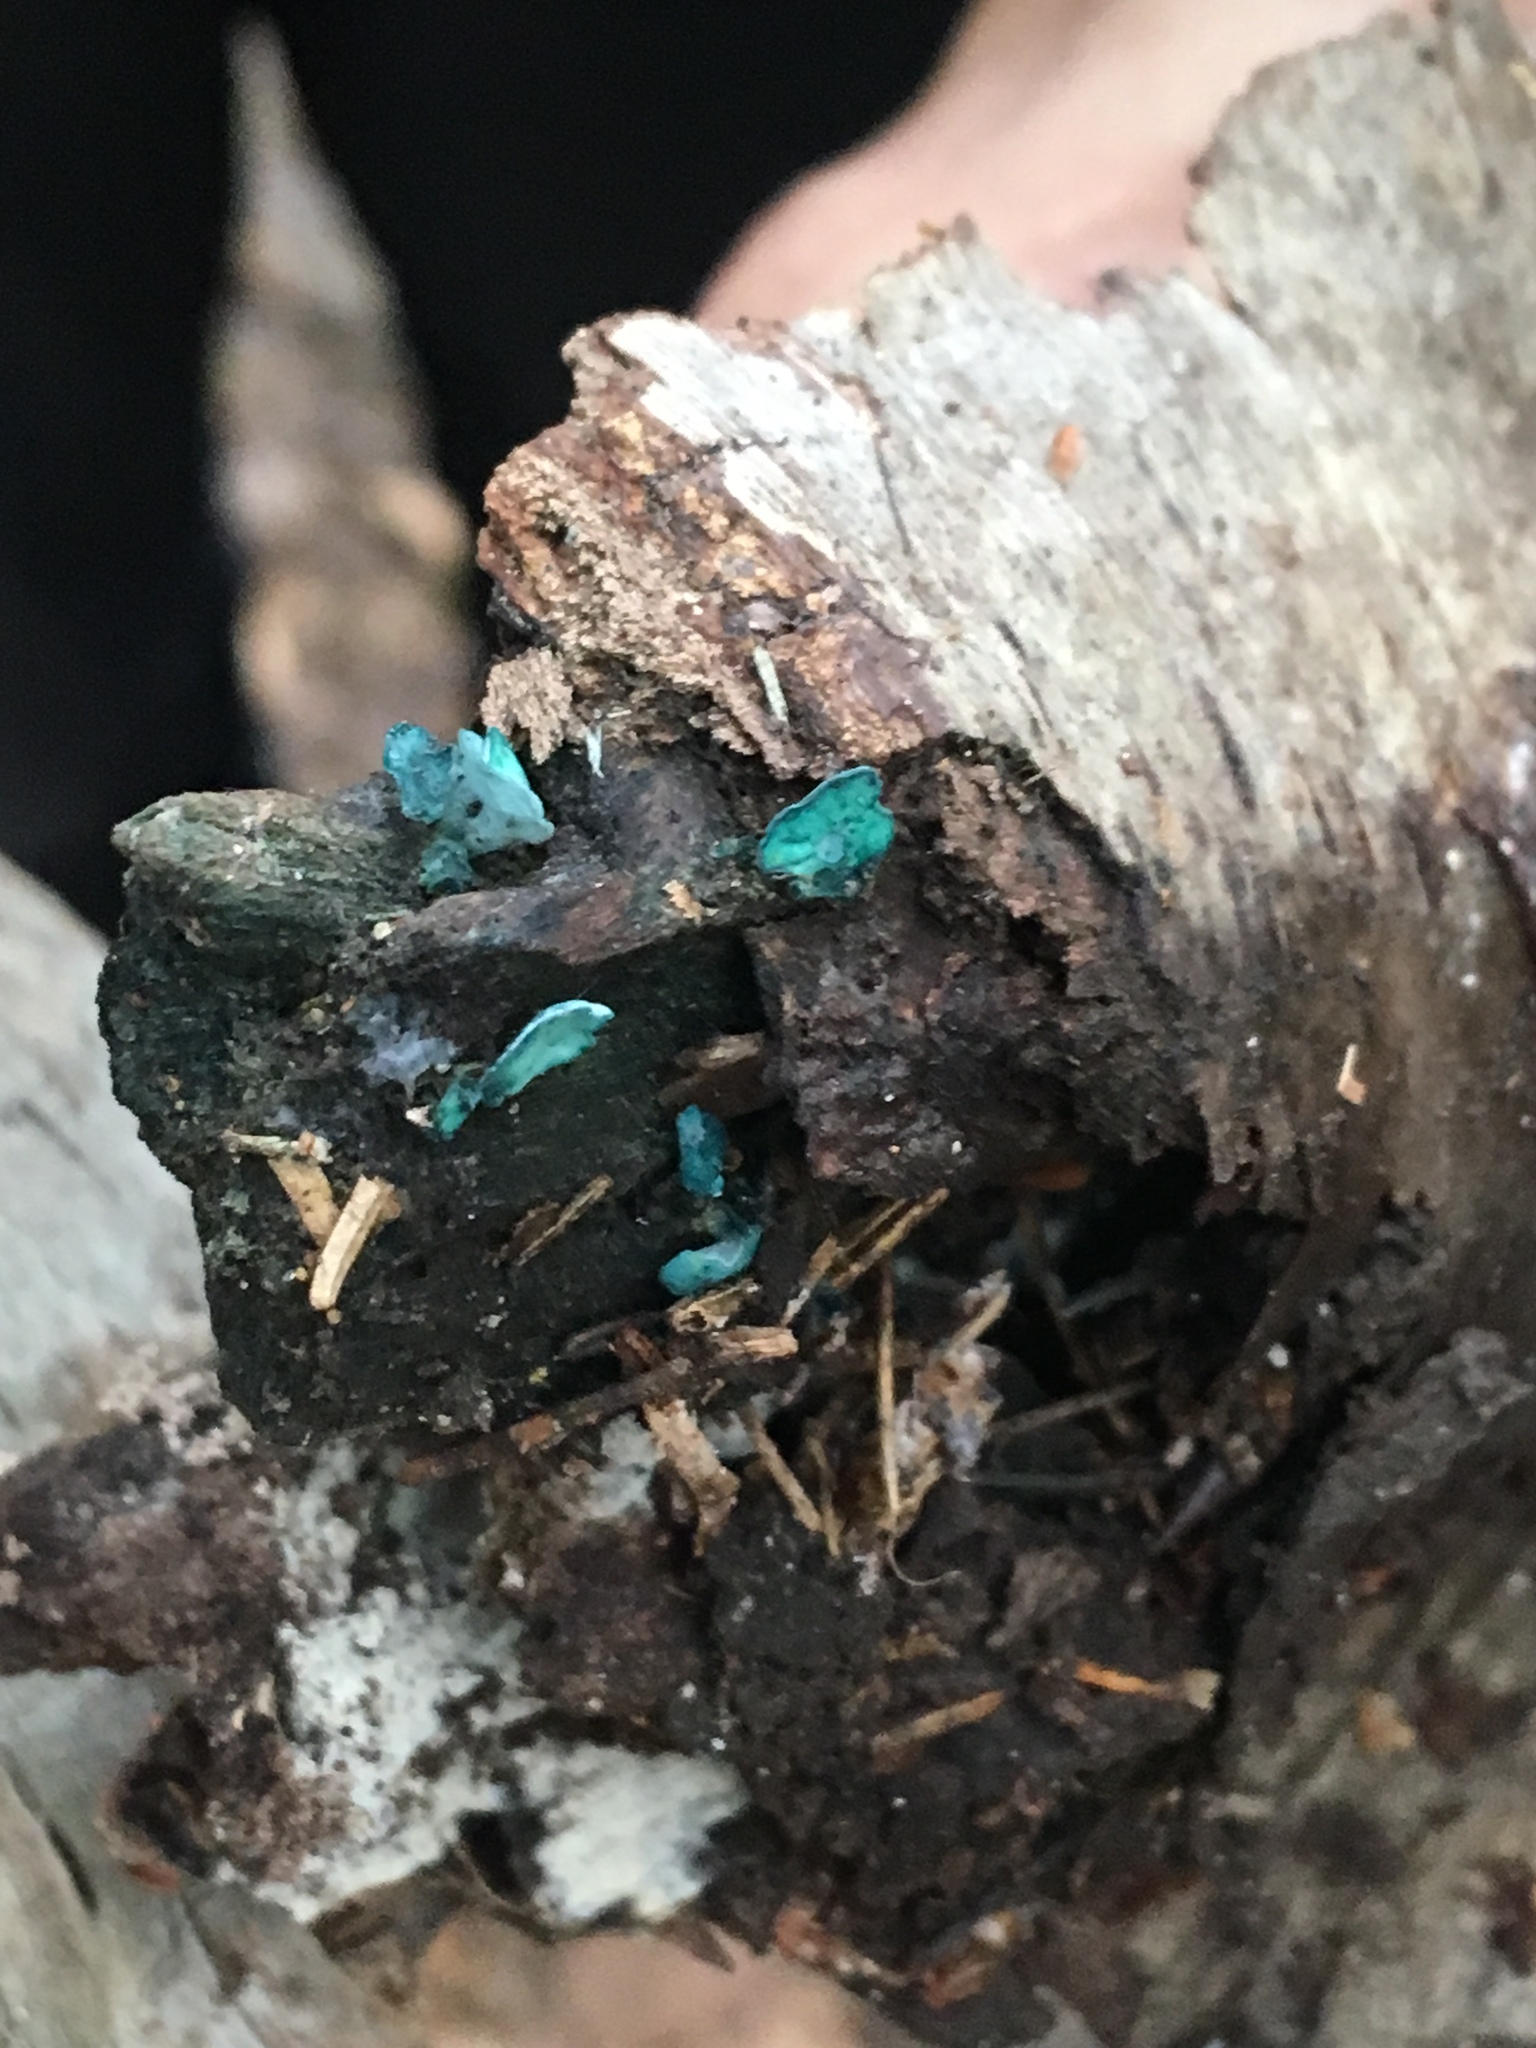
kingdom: Fungi
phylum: Ascomycota
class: Leotiomycetes
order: Helotiales
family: Chlorociboriaceae
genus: Chlorociboria
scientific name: Chlorociboria aeruginascens
